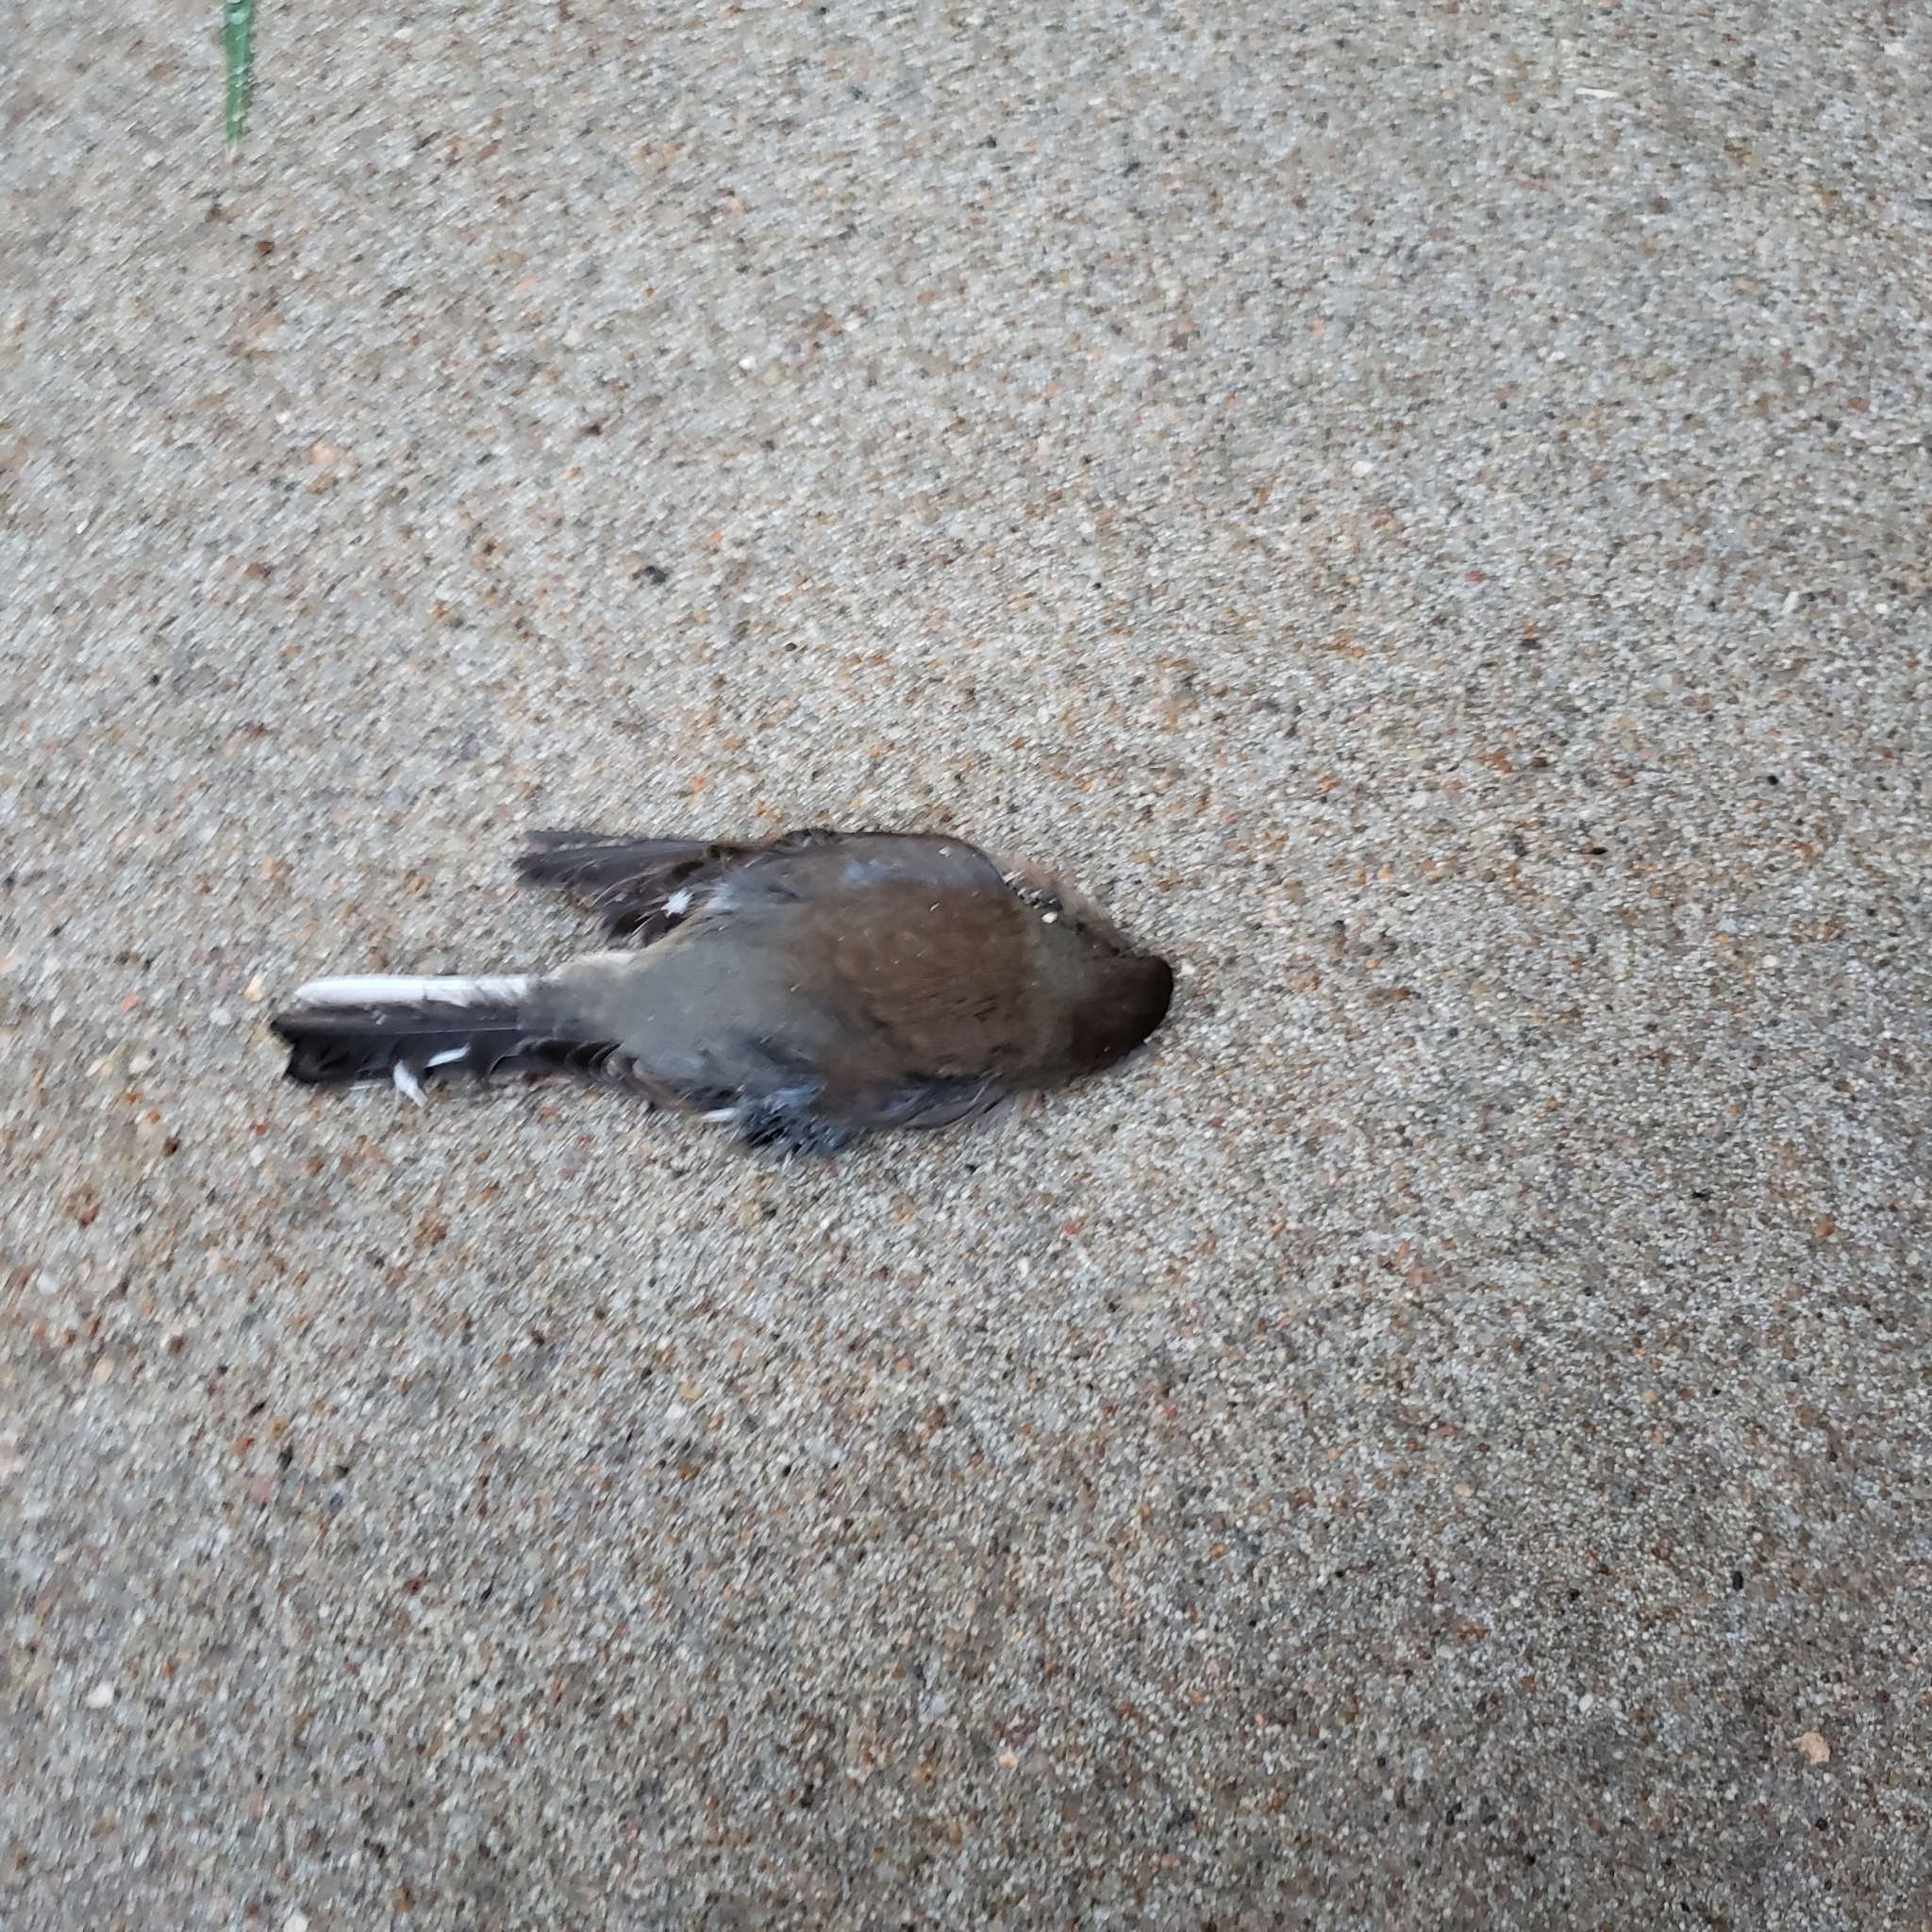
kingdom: Animalia
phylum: Chordata
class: Aves
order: Passeriformes
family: Passerellidae
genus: Junco
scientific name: Junco hyemalis
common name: Dark-eyed junco
